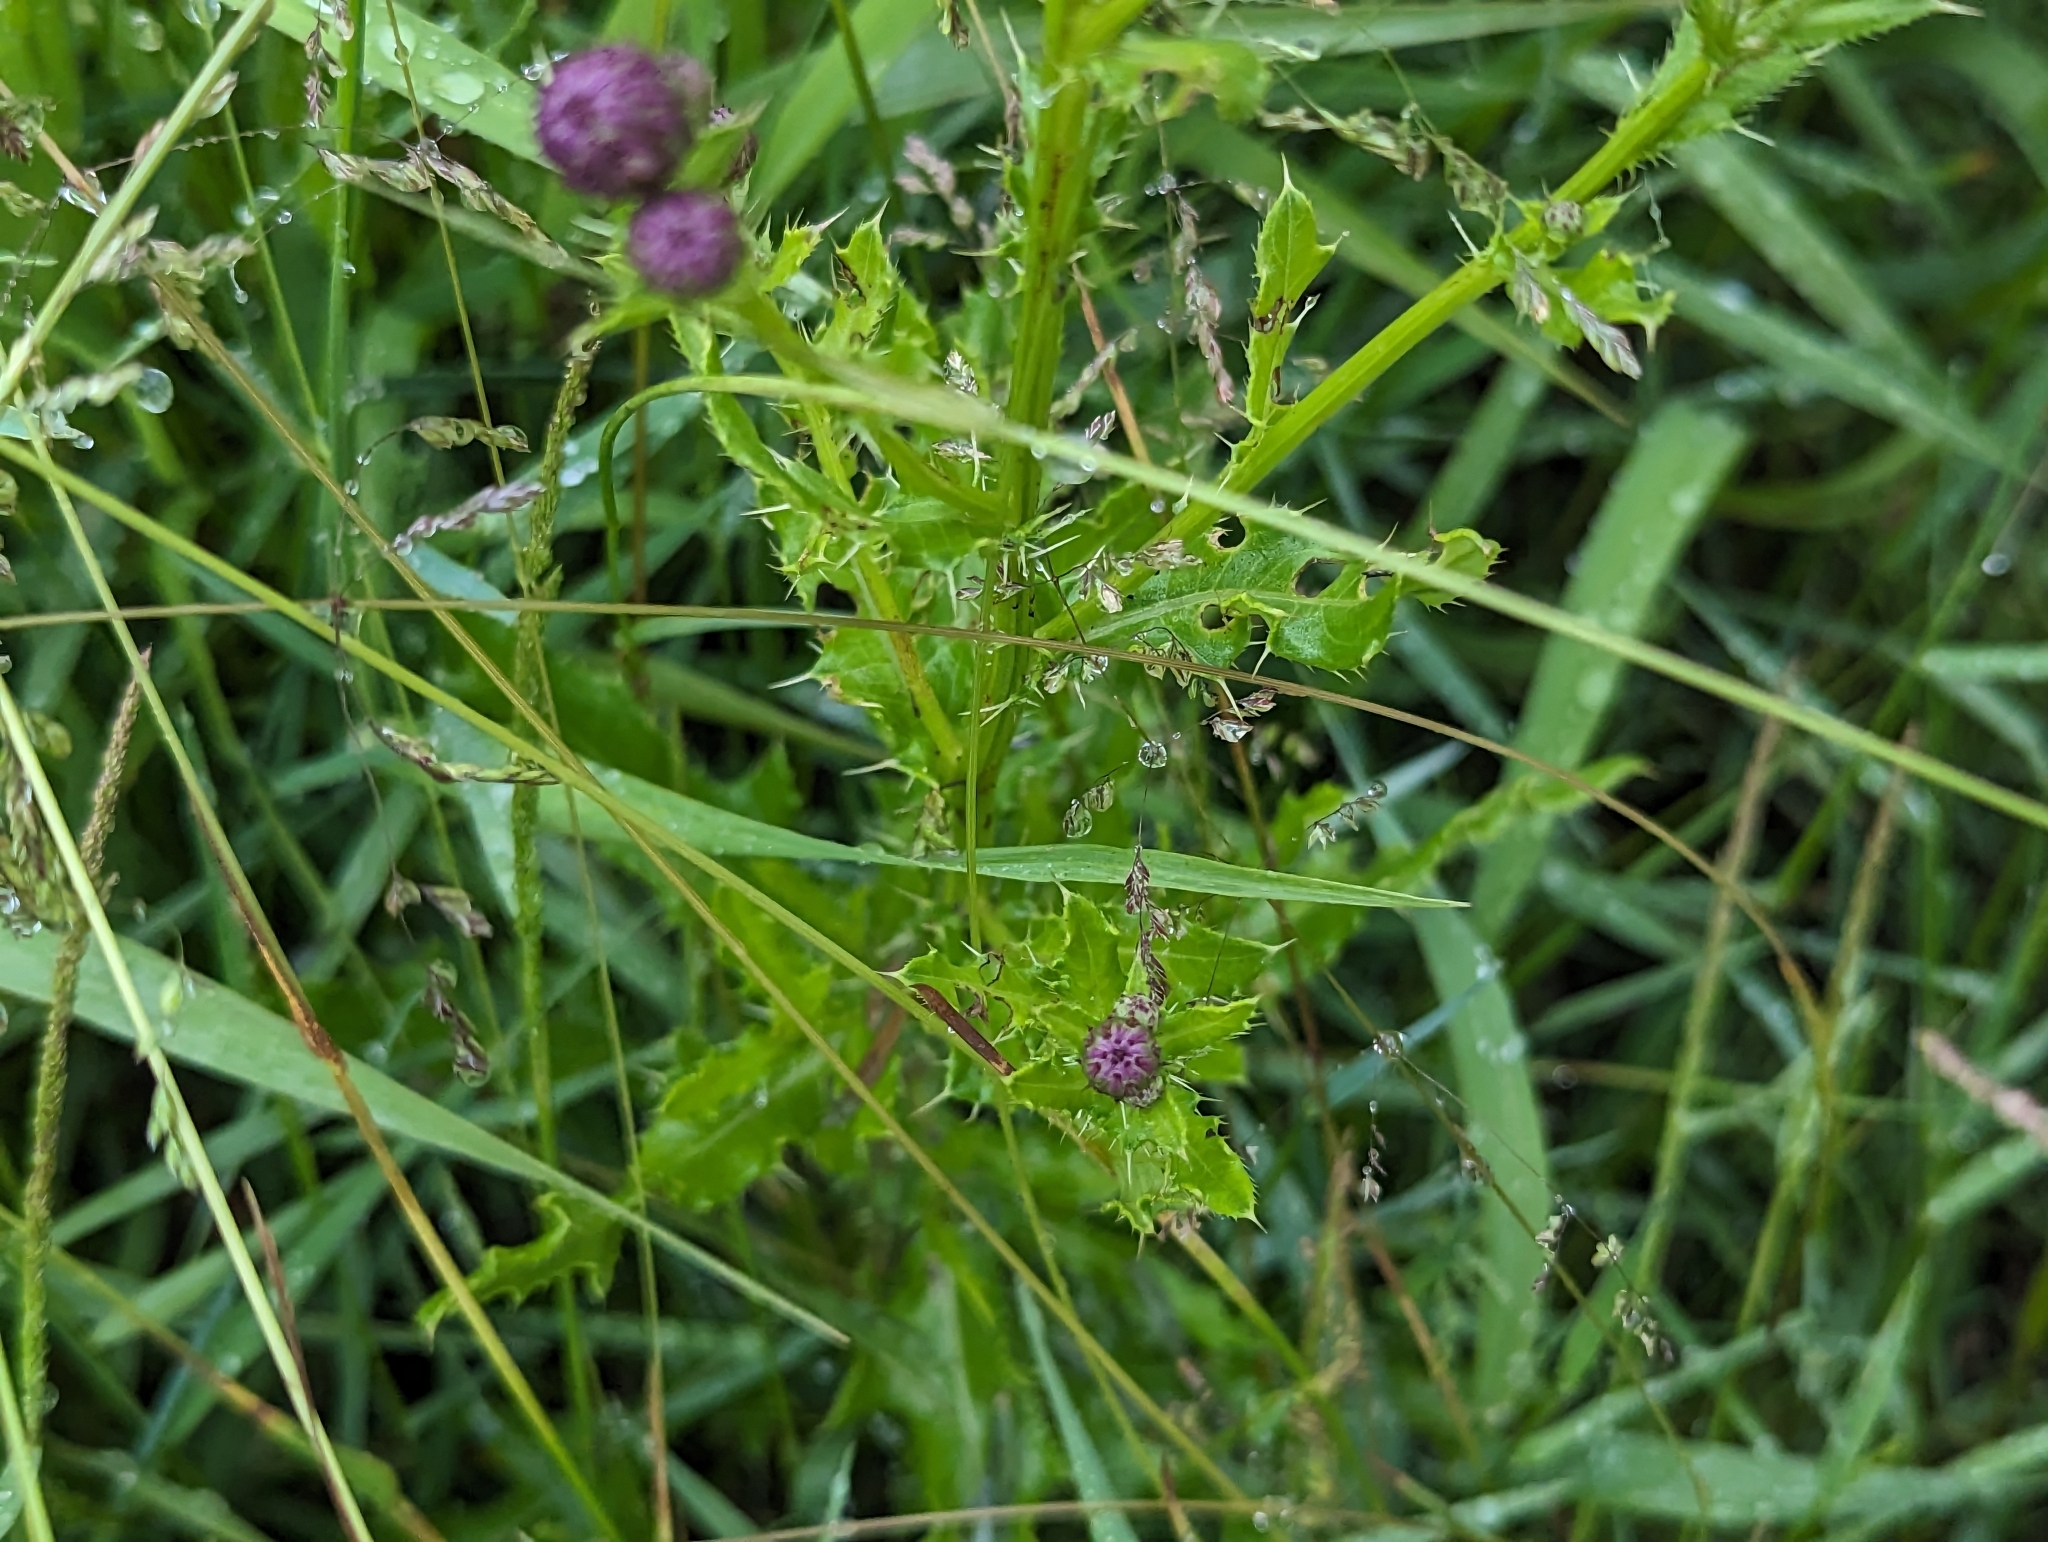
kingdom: Plantae
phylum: Tracheophyta
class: Magnoliopsida
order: Asterales
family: Asteraceae
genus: Cirsium
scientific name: Cirsium arvense
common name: Creeping thistle
